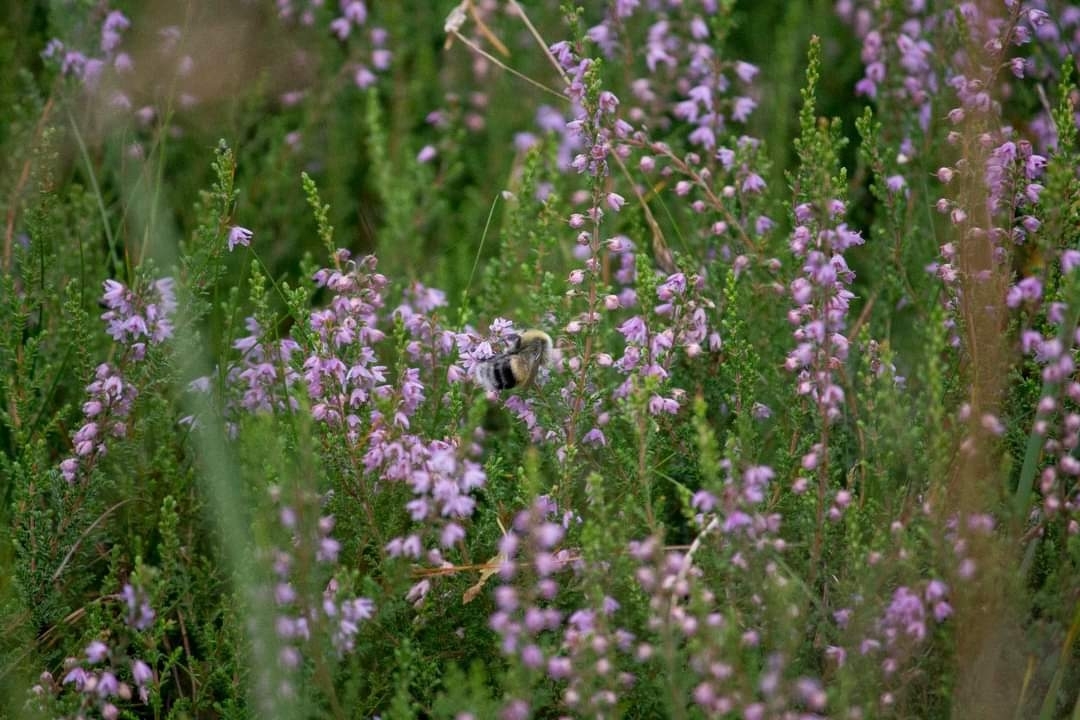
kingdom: Animalia
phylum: Arthropoda
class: Insecta
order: Hymenoptera
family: Apidae
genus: Bombus
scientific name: Bombus lucorum
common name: White-tailed bumblebee
